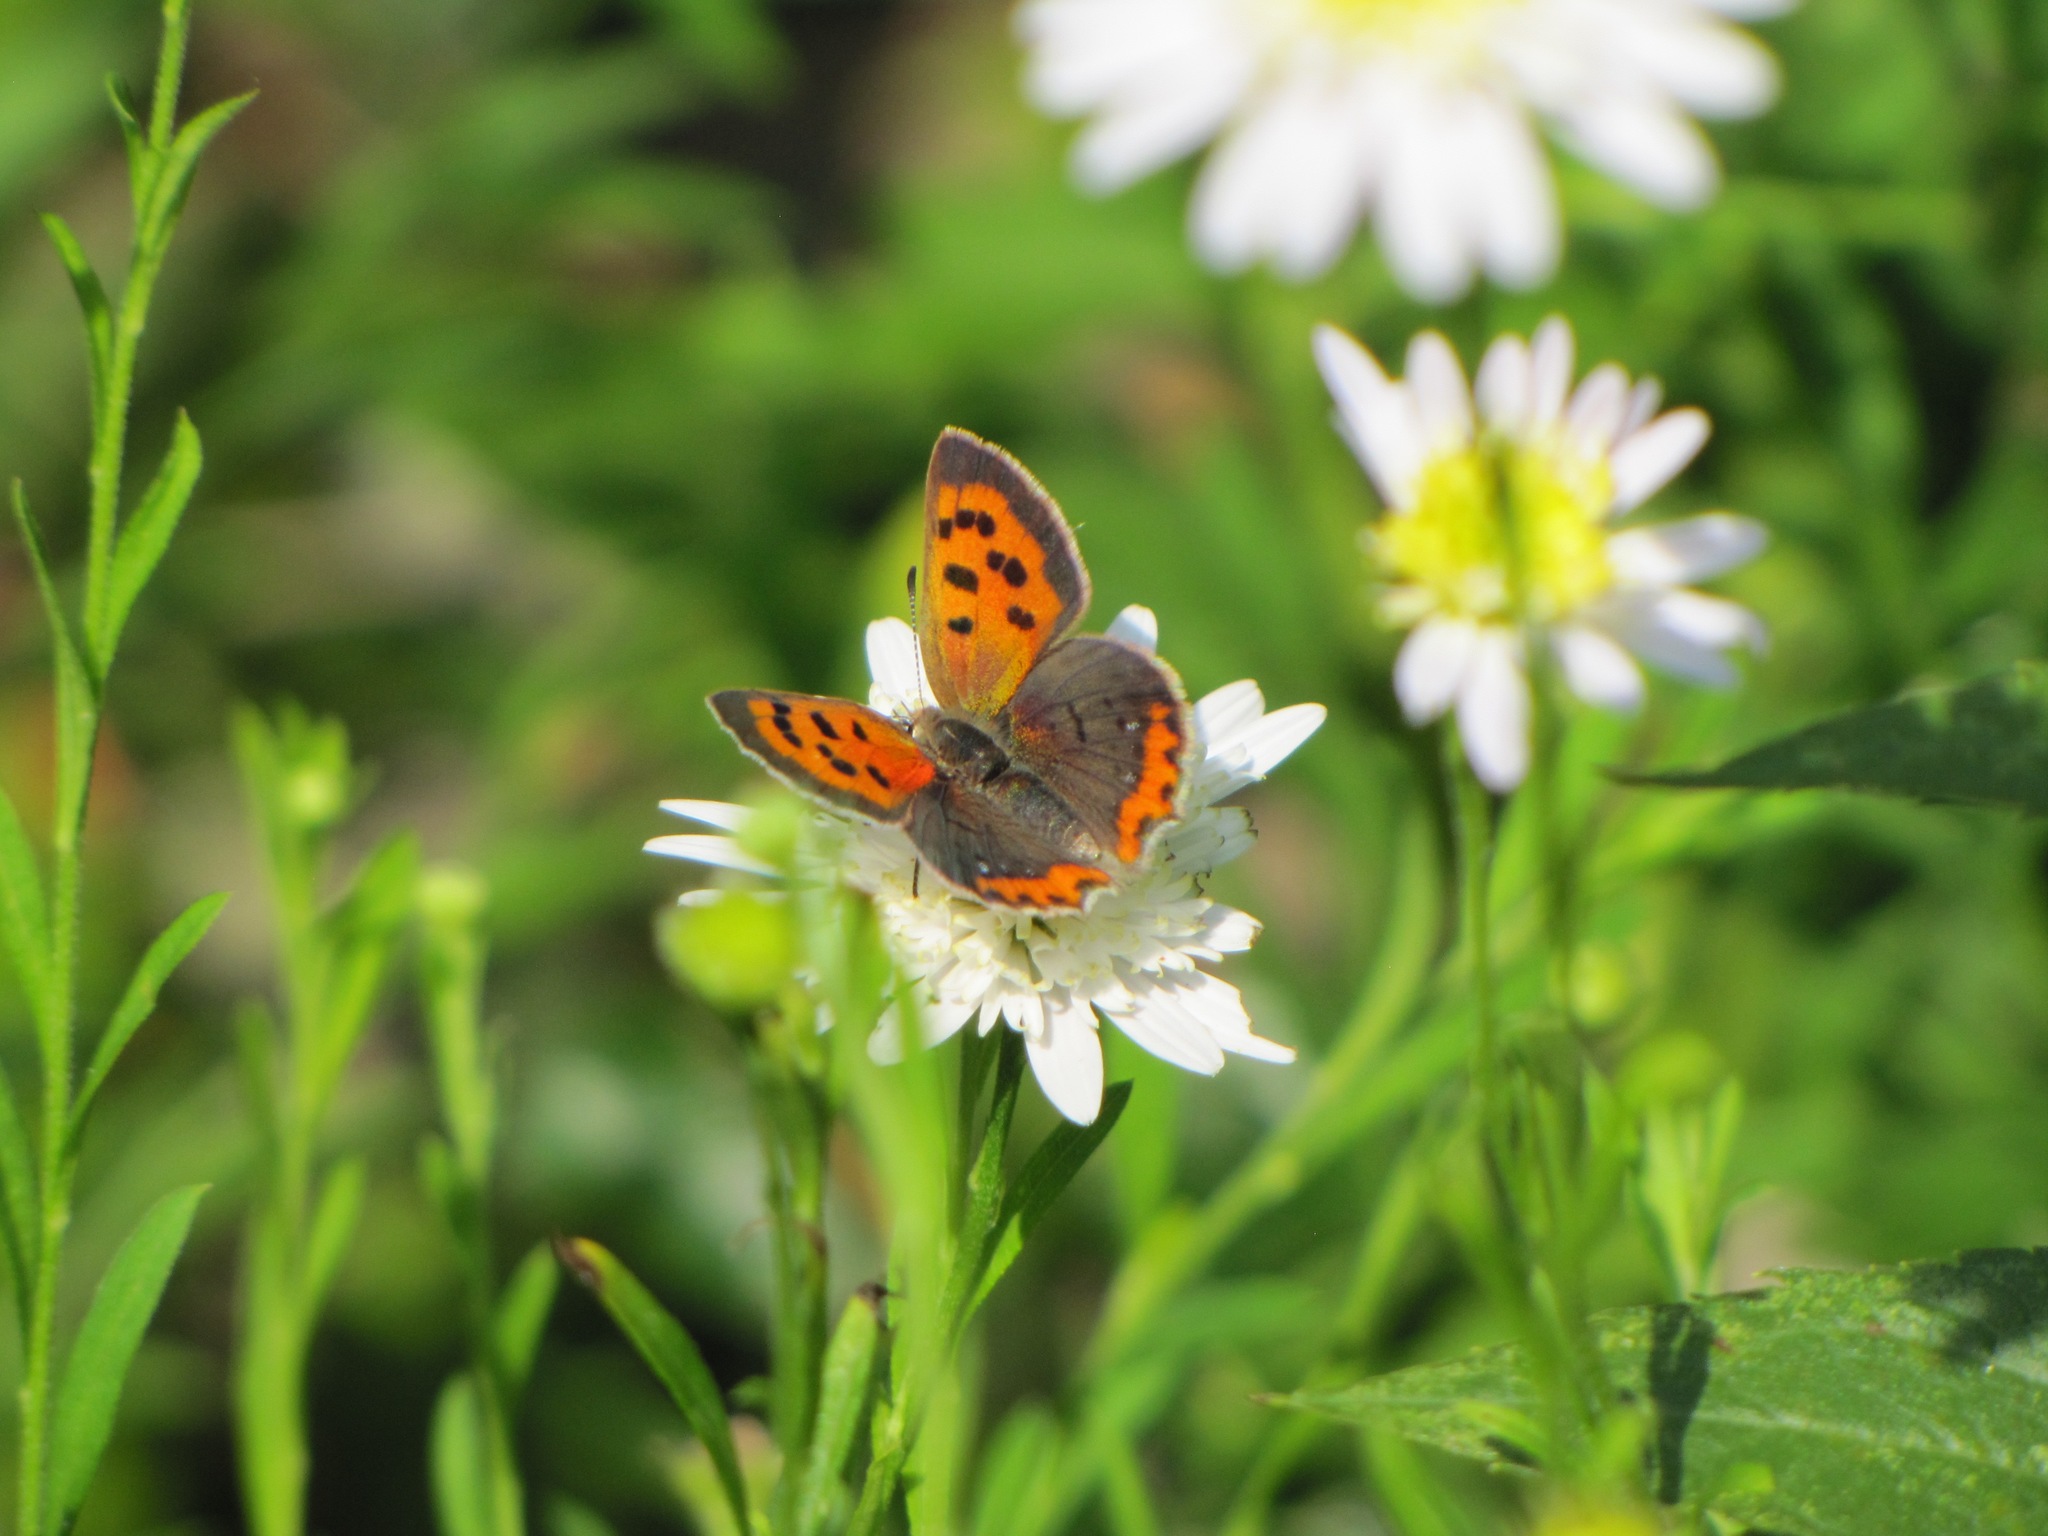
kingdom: Animalia
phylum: Arthropoda
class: Insecta
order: Lepidoptera
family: Lycaenidae
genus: Lycaena
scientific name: Lycaena hypophlaeas
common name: American copper
